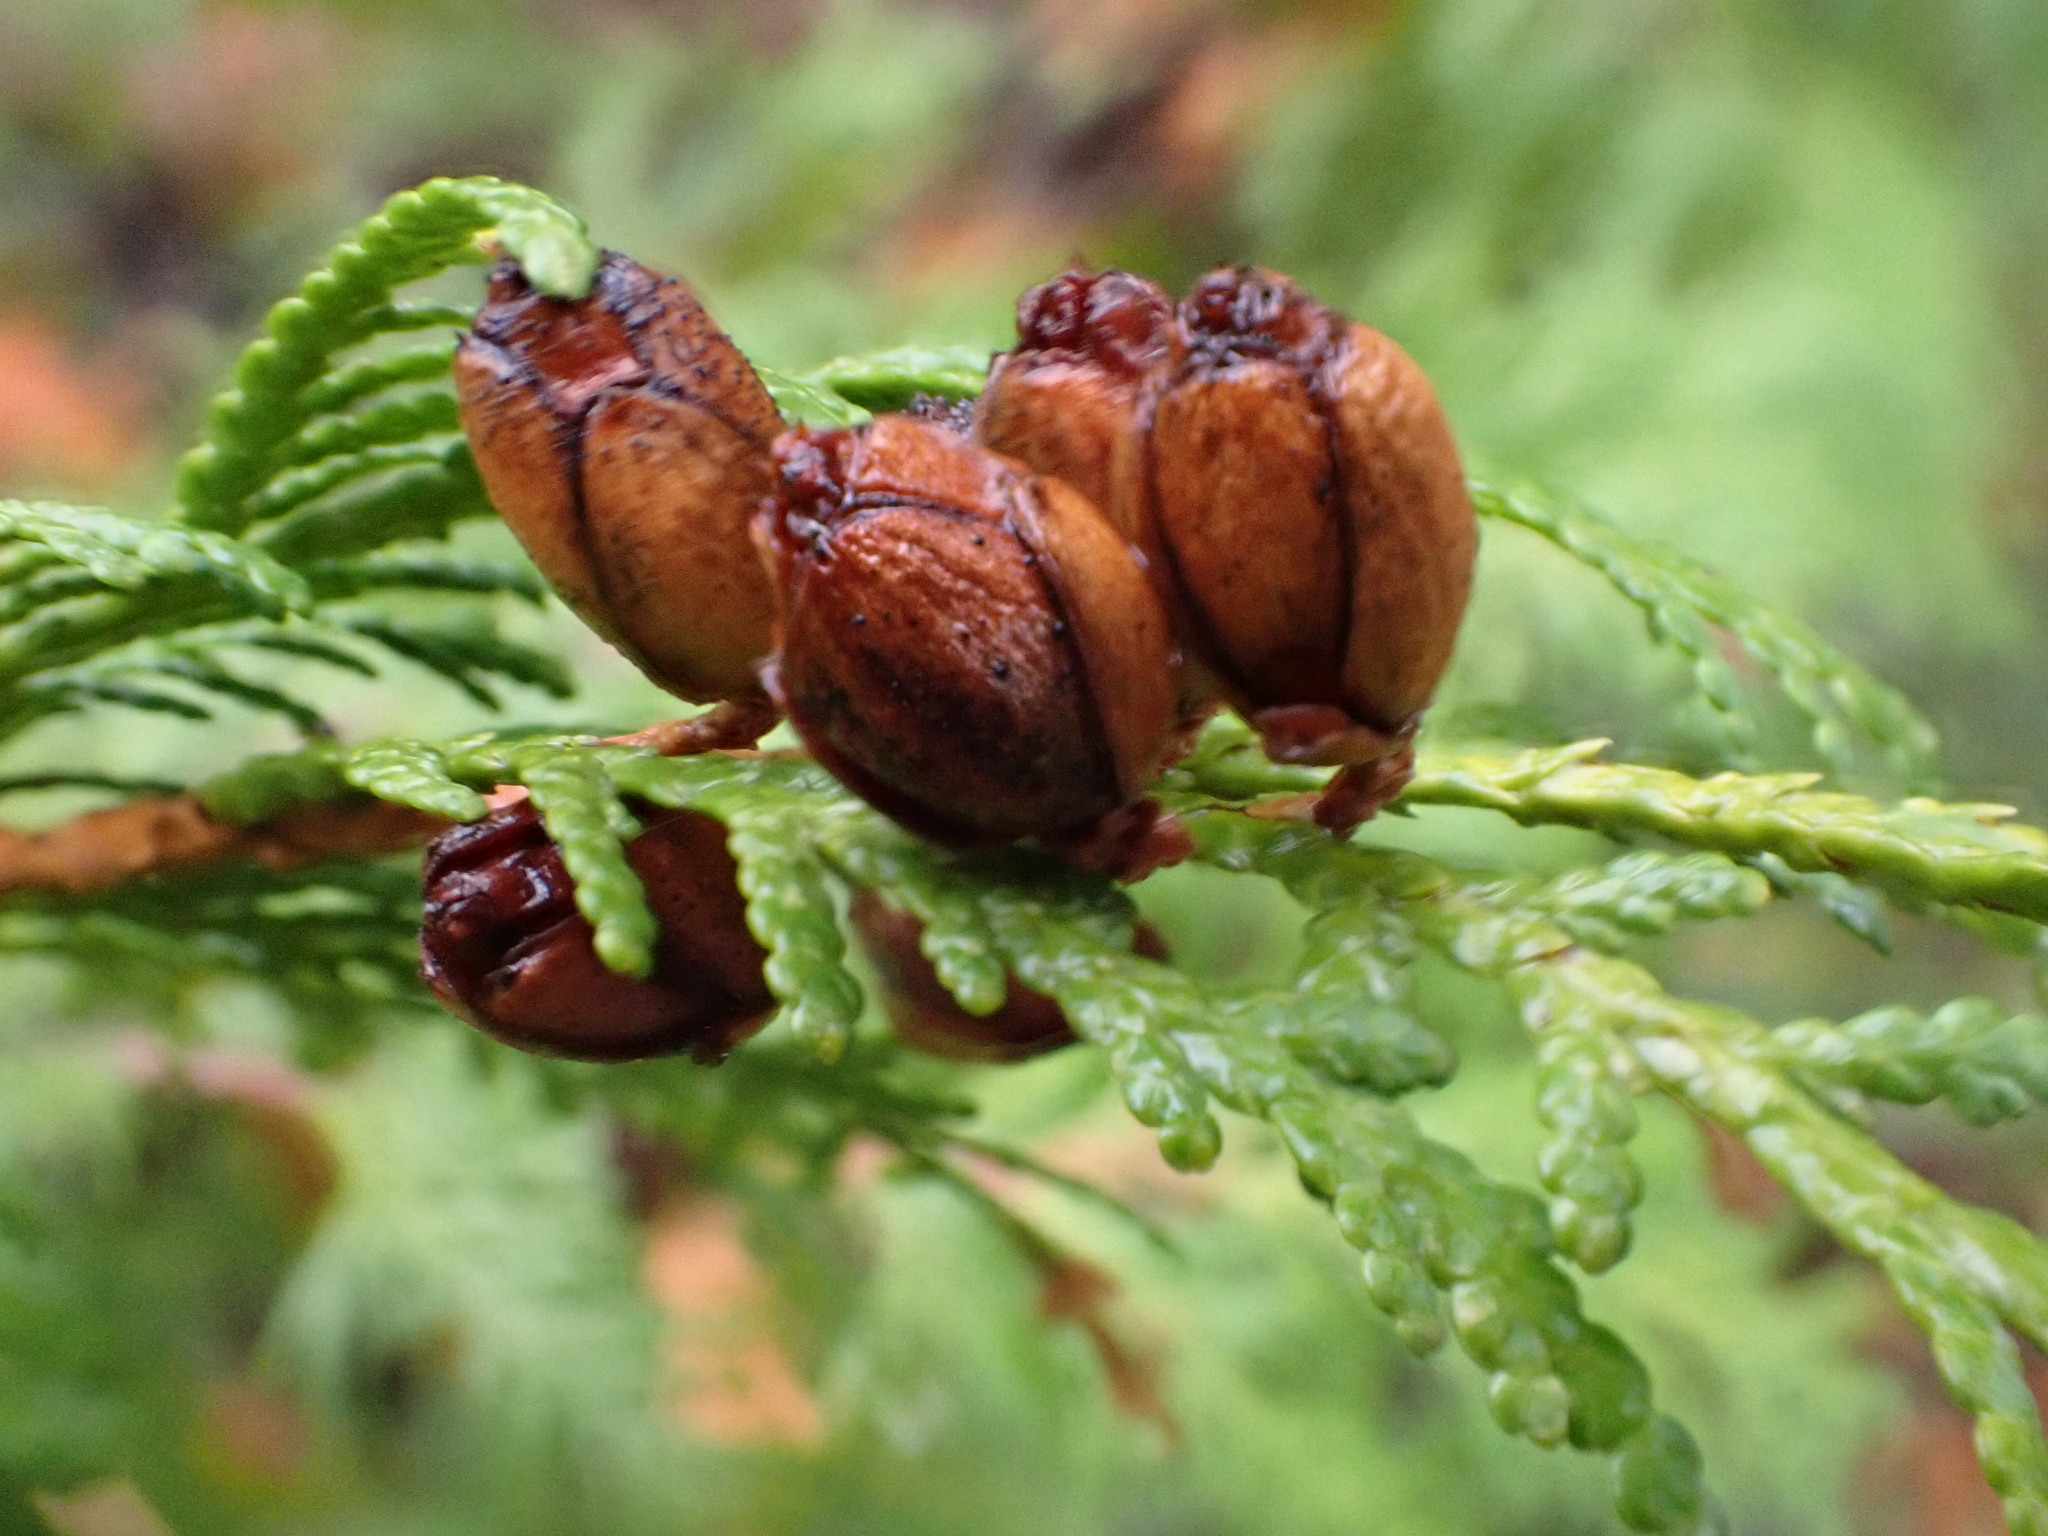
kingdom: Plantae
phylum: Tracheophyta
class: Pinopsida
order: Pinales
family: Cupressaceae
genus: Thuja
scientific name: Thuja occidentalis
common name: Northern white-cedar
